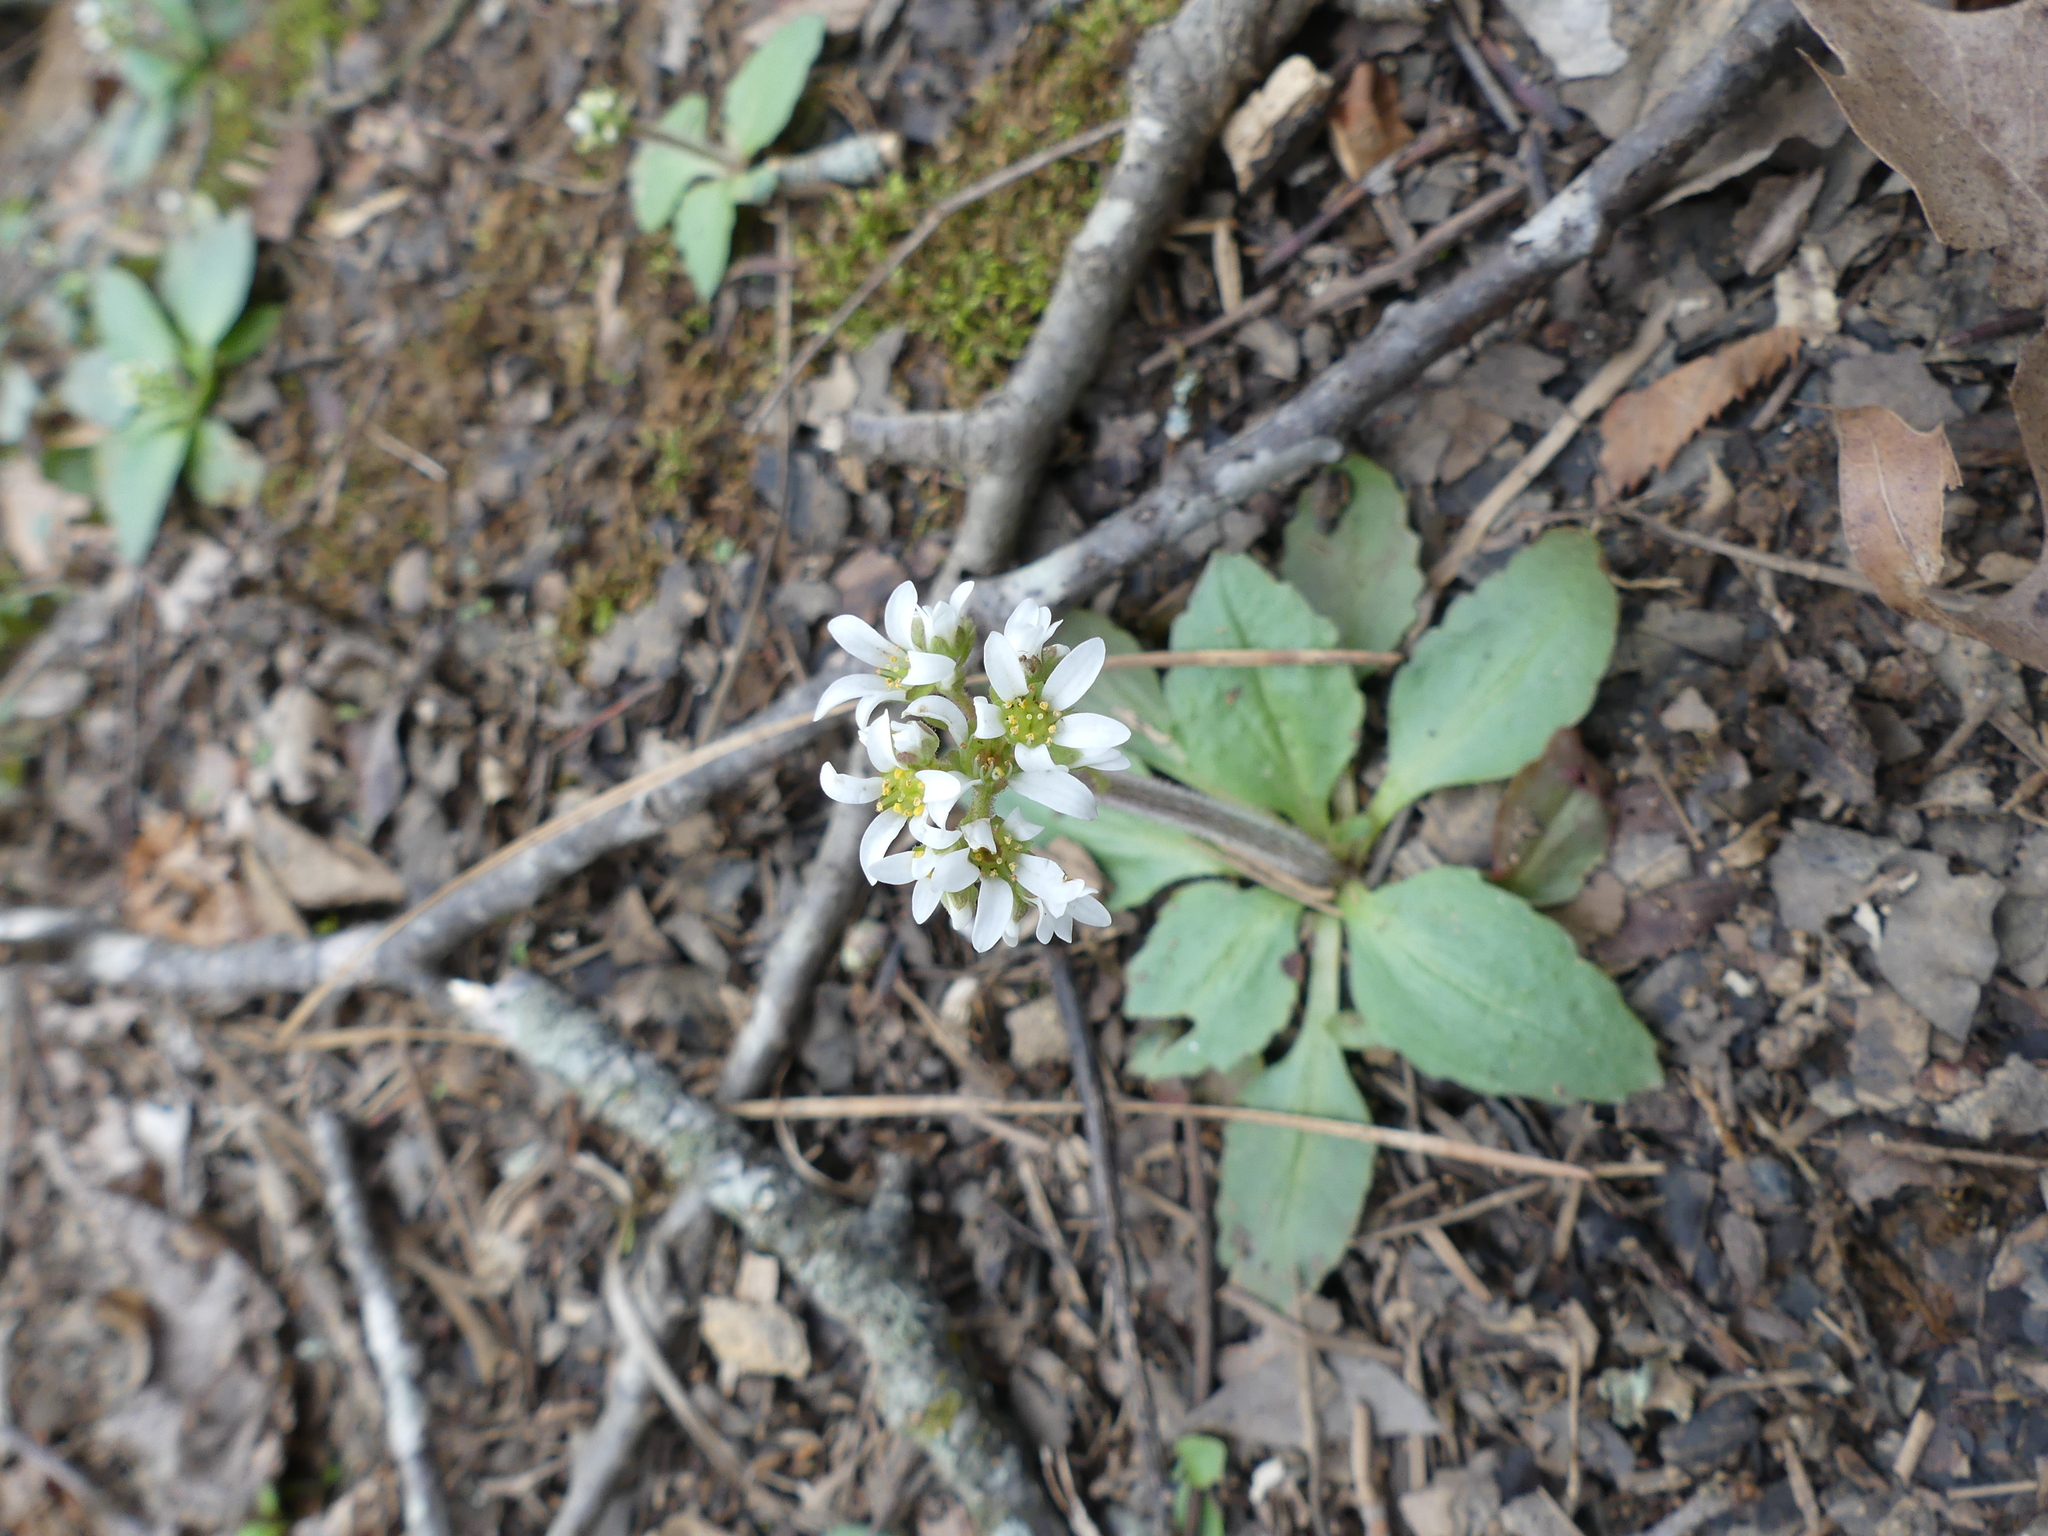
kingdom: Plantae
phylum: Tracheophyta
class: Magnoliopsida
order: Saxifragales
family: Saxifragaceae
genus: Micranthes
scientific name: Micranthes virginiensis
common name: Early saxifrage
